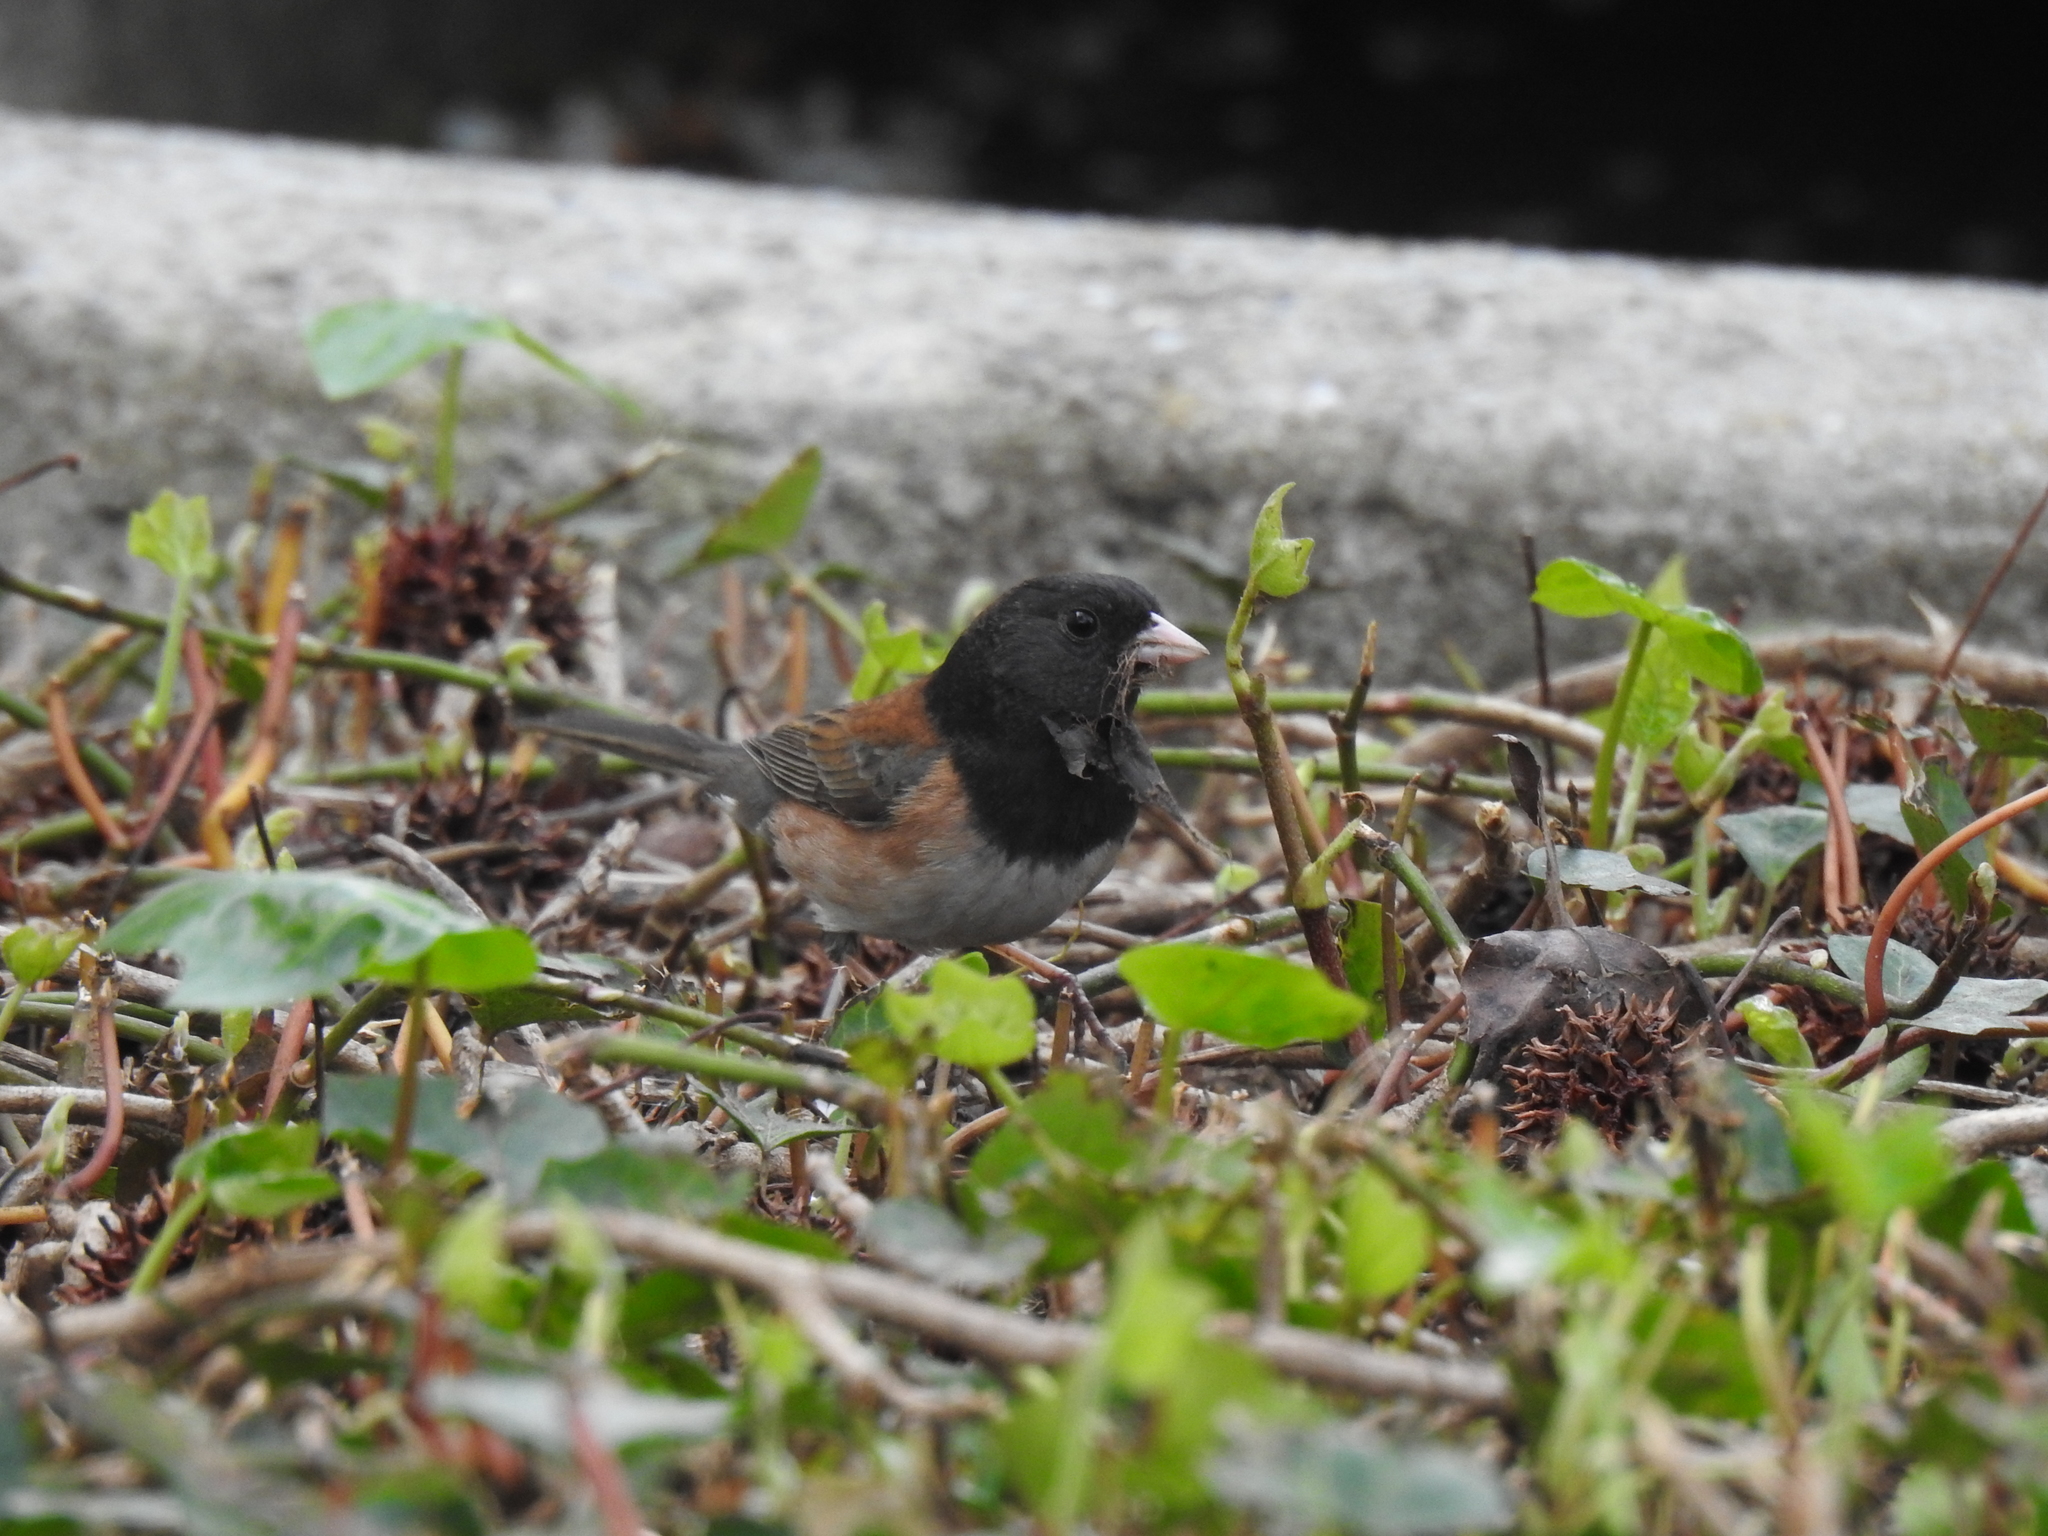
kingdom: Animalia
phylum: Chordata
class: Aves
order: Passeriformes
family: Passerellidae
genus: Junco
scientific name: Junco hyemalis
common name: Dark-eyed junco
